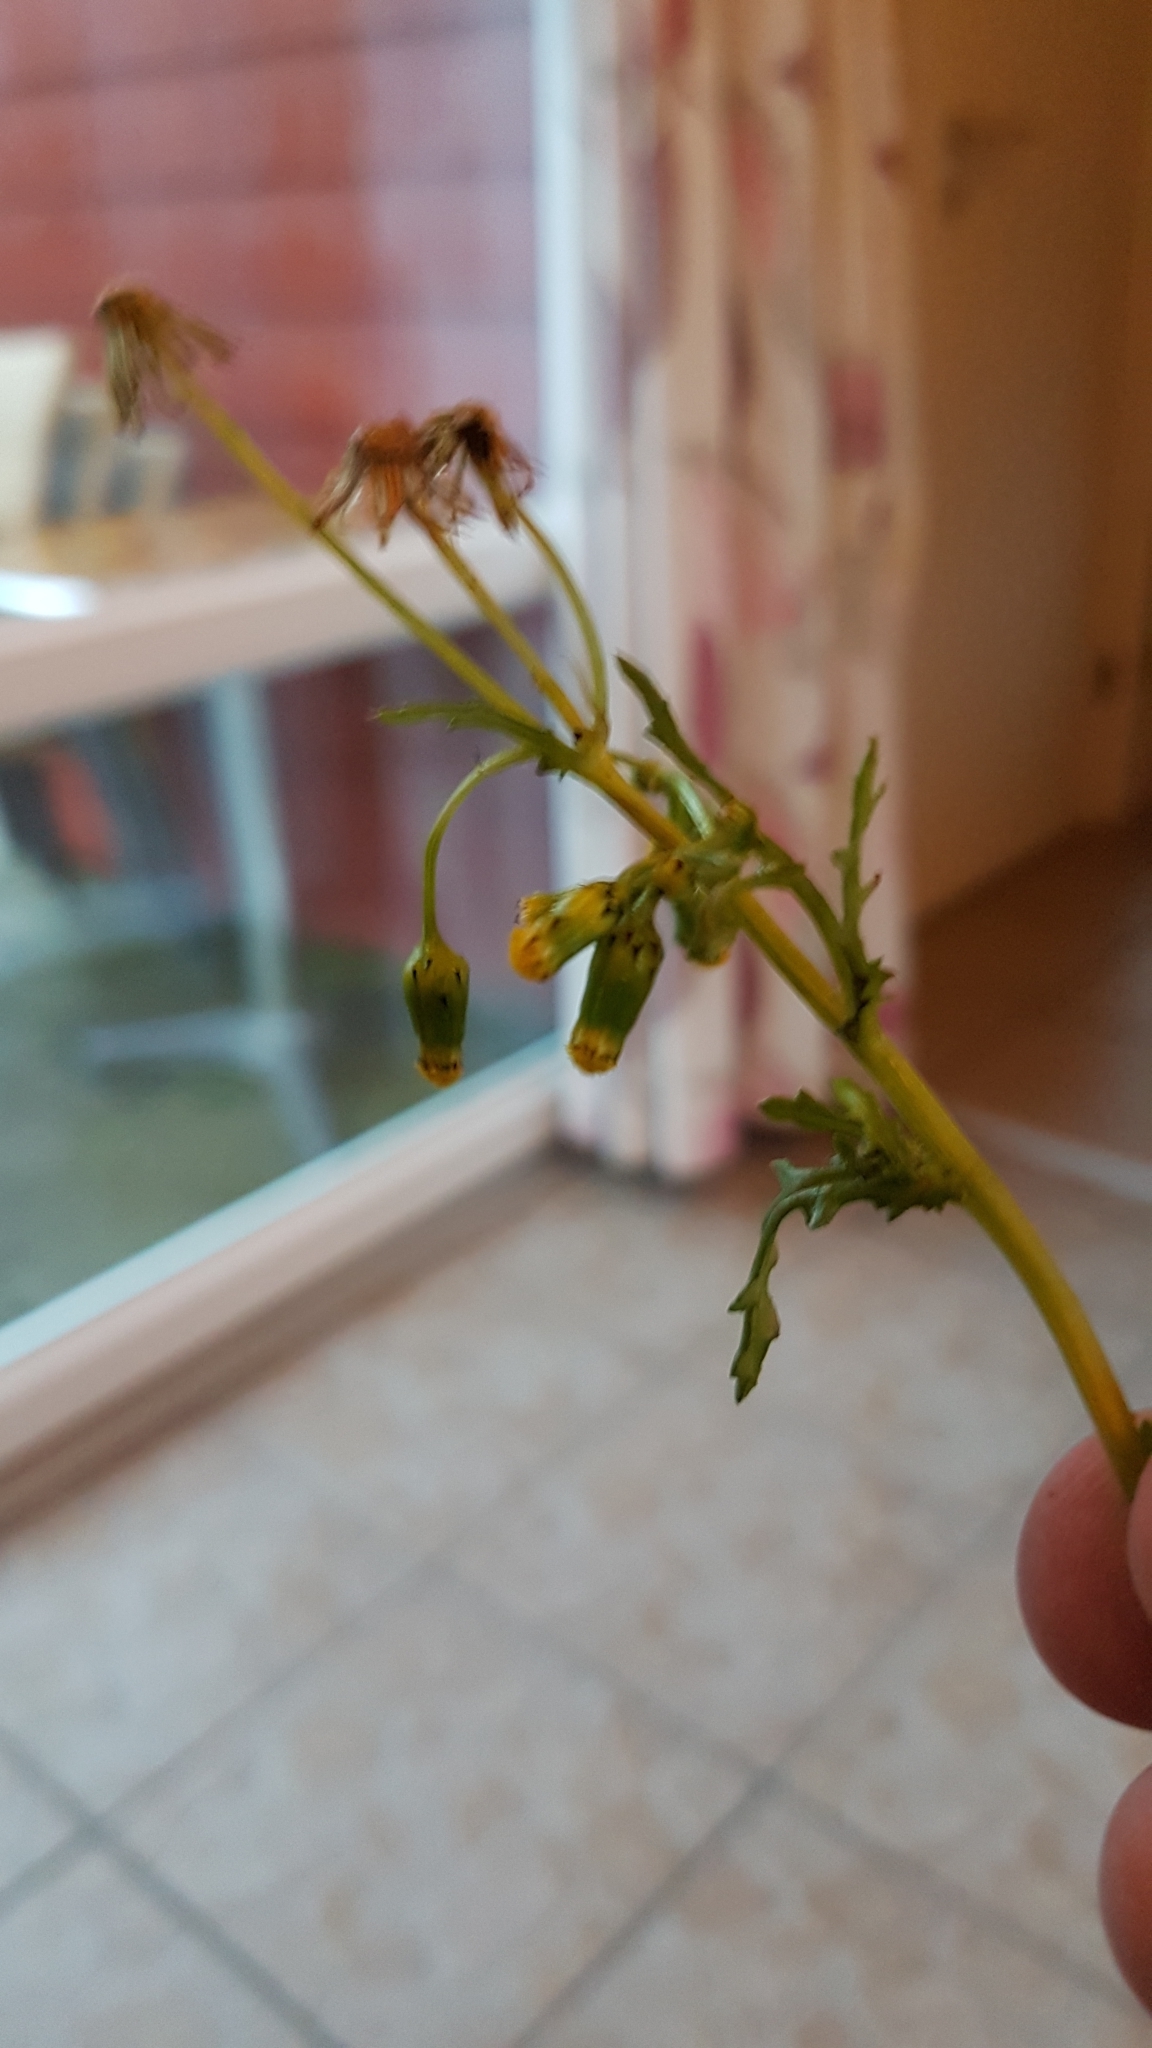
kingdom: Plantae
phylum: Tracheophyta
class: Magnoliopsida
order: Asterales
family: Asteraceae
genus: Senecio
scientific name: Senecio vulgaris
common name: Old-man-in-the-spring
